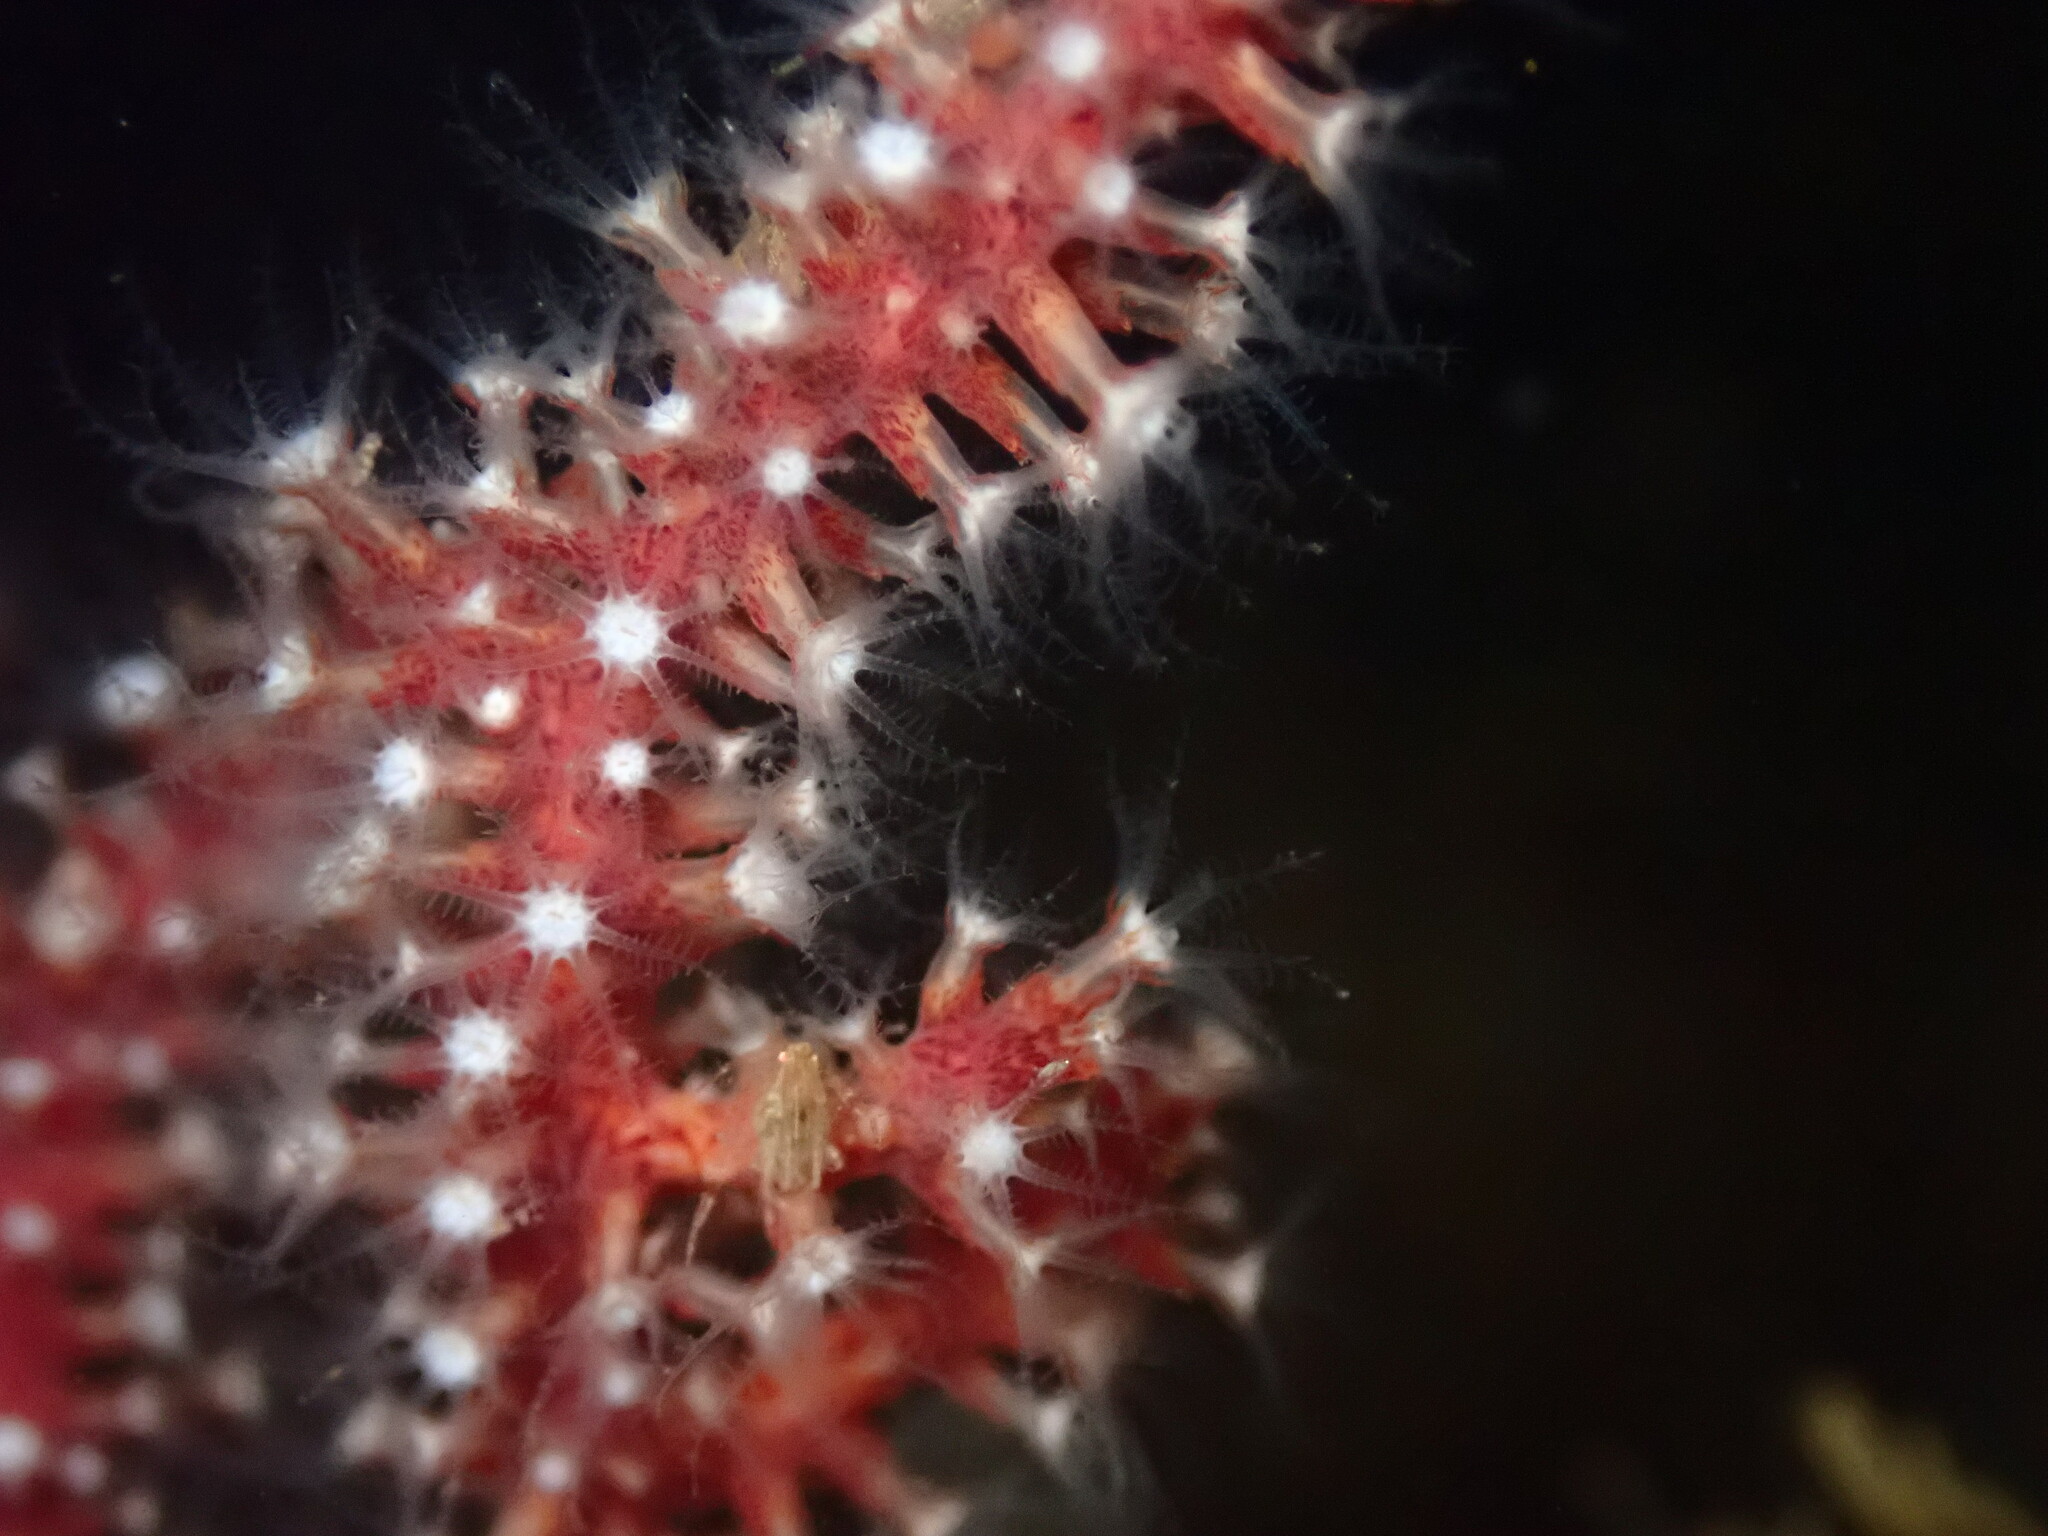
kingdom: Animalia
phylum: Cnidaria
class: Anthozoa
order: Malacalcyonacea
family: Plexauridae
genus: Muricea
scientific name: Muricea fruticosa
